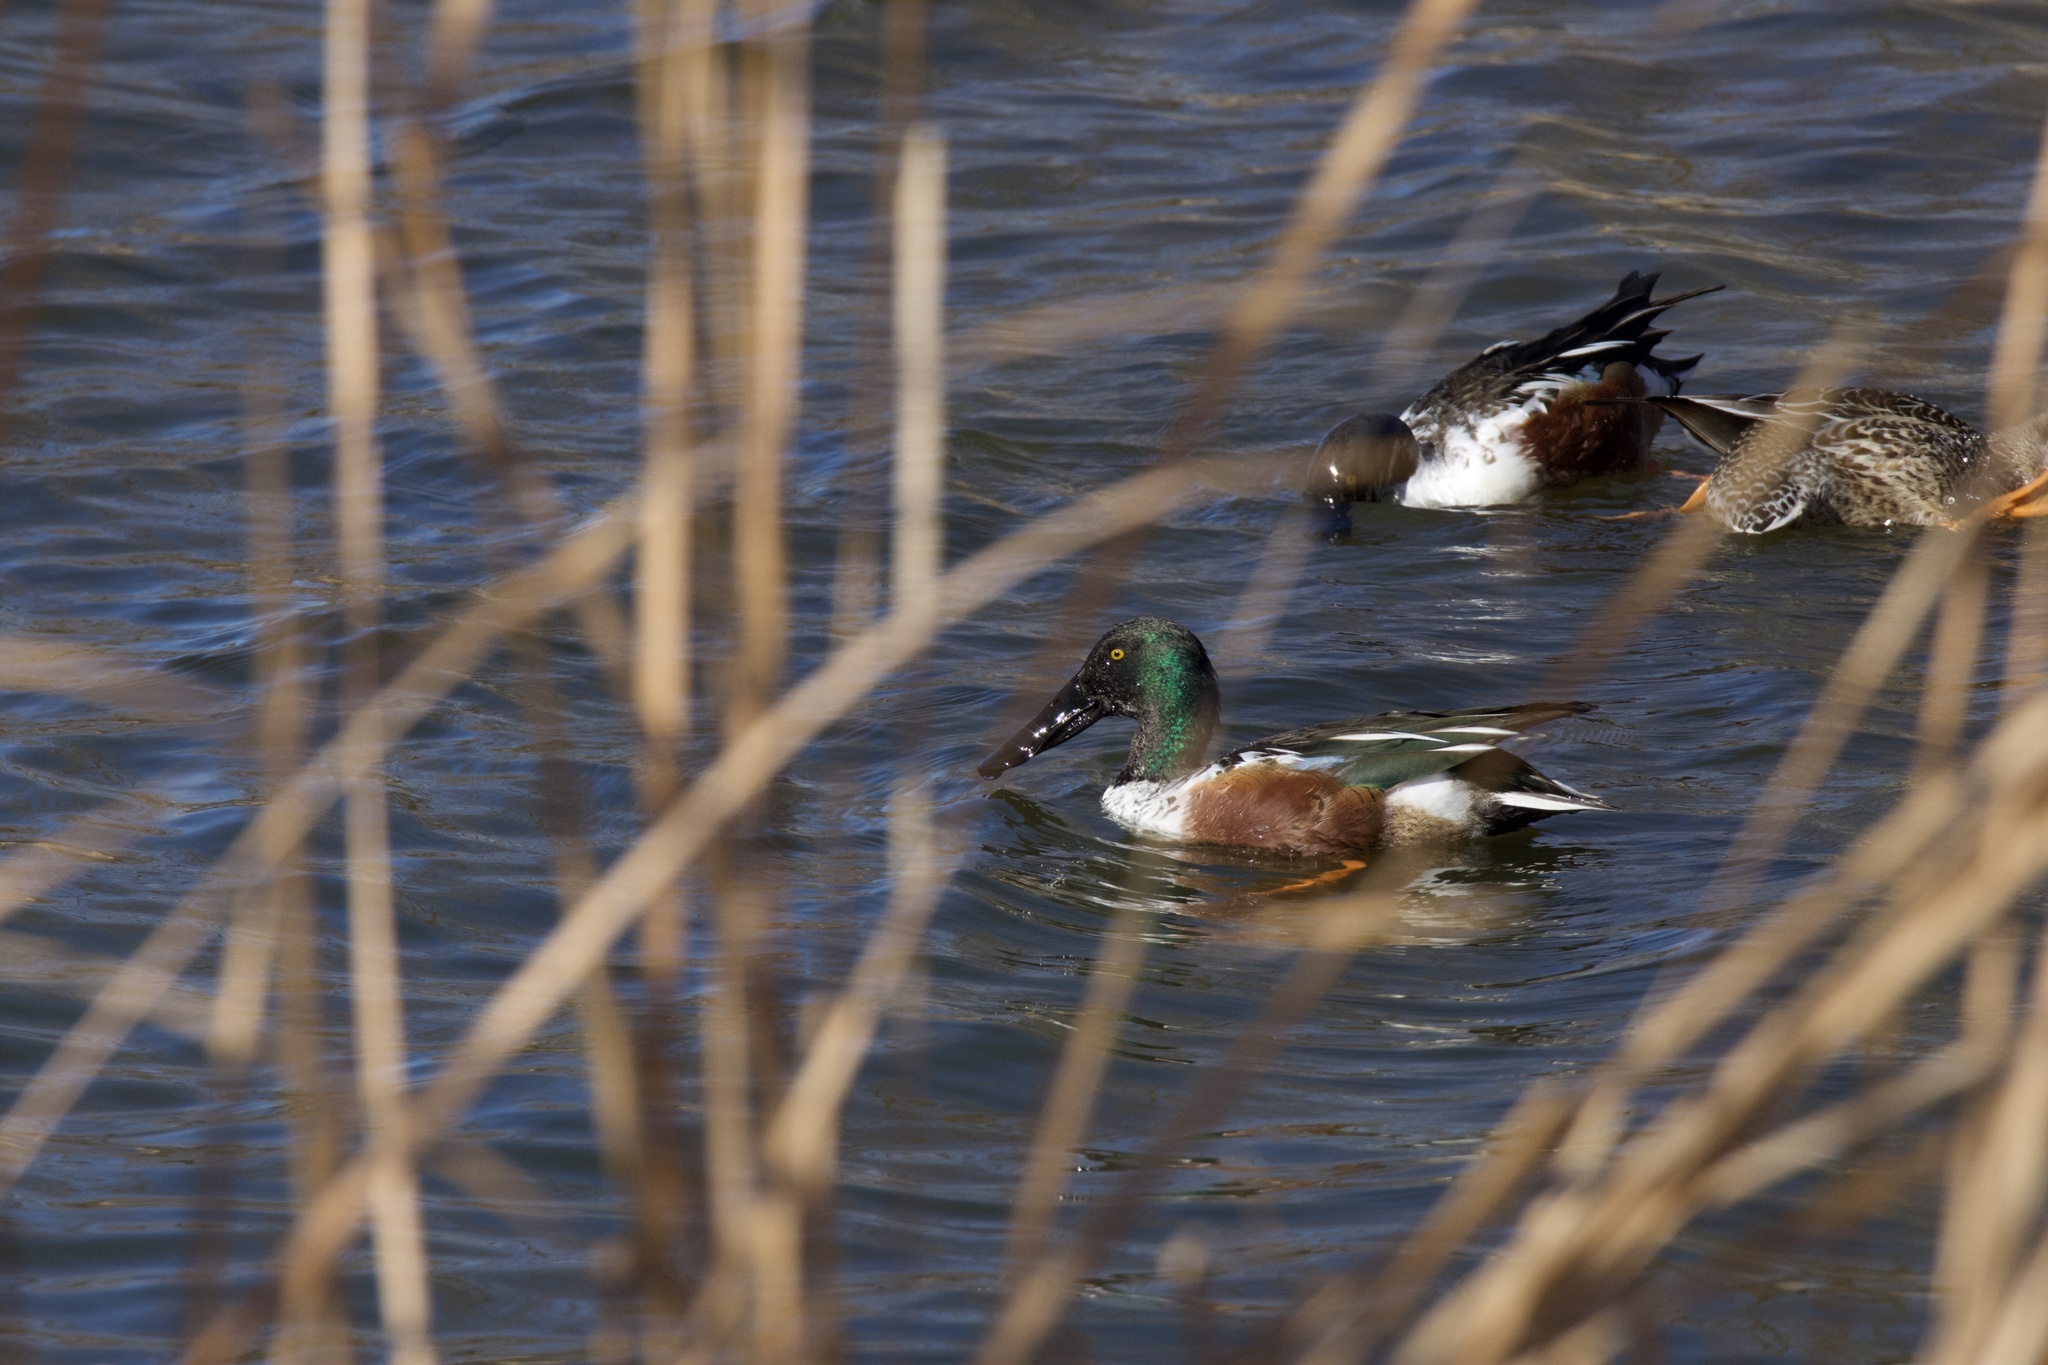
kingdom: Animalia
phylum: Chordata
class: Aves
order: Anseriformes
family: Anatidae
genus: Spatula
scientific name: Spatula clypeata
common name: Northern shoveler
